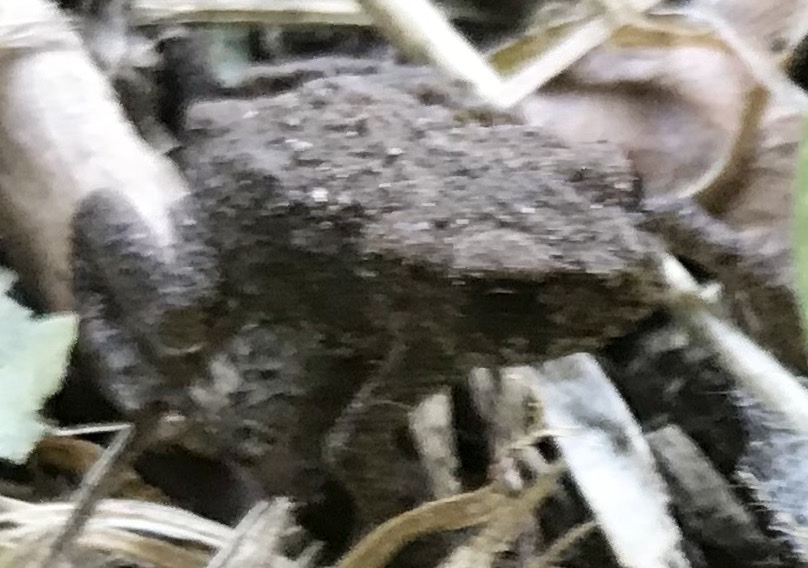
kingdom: Animalia
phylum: Chordata
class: Amphibia
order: Anura
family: Bufonidae
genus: Bufo
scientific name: Bufo bufo
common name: Common toad
